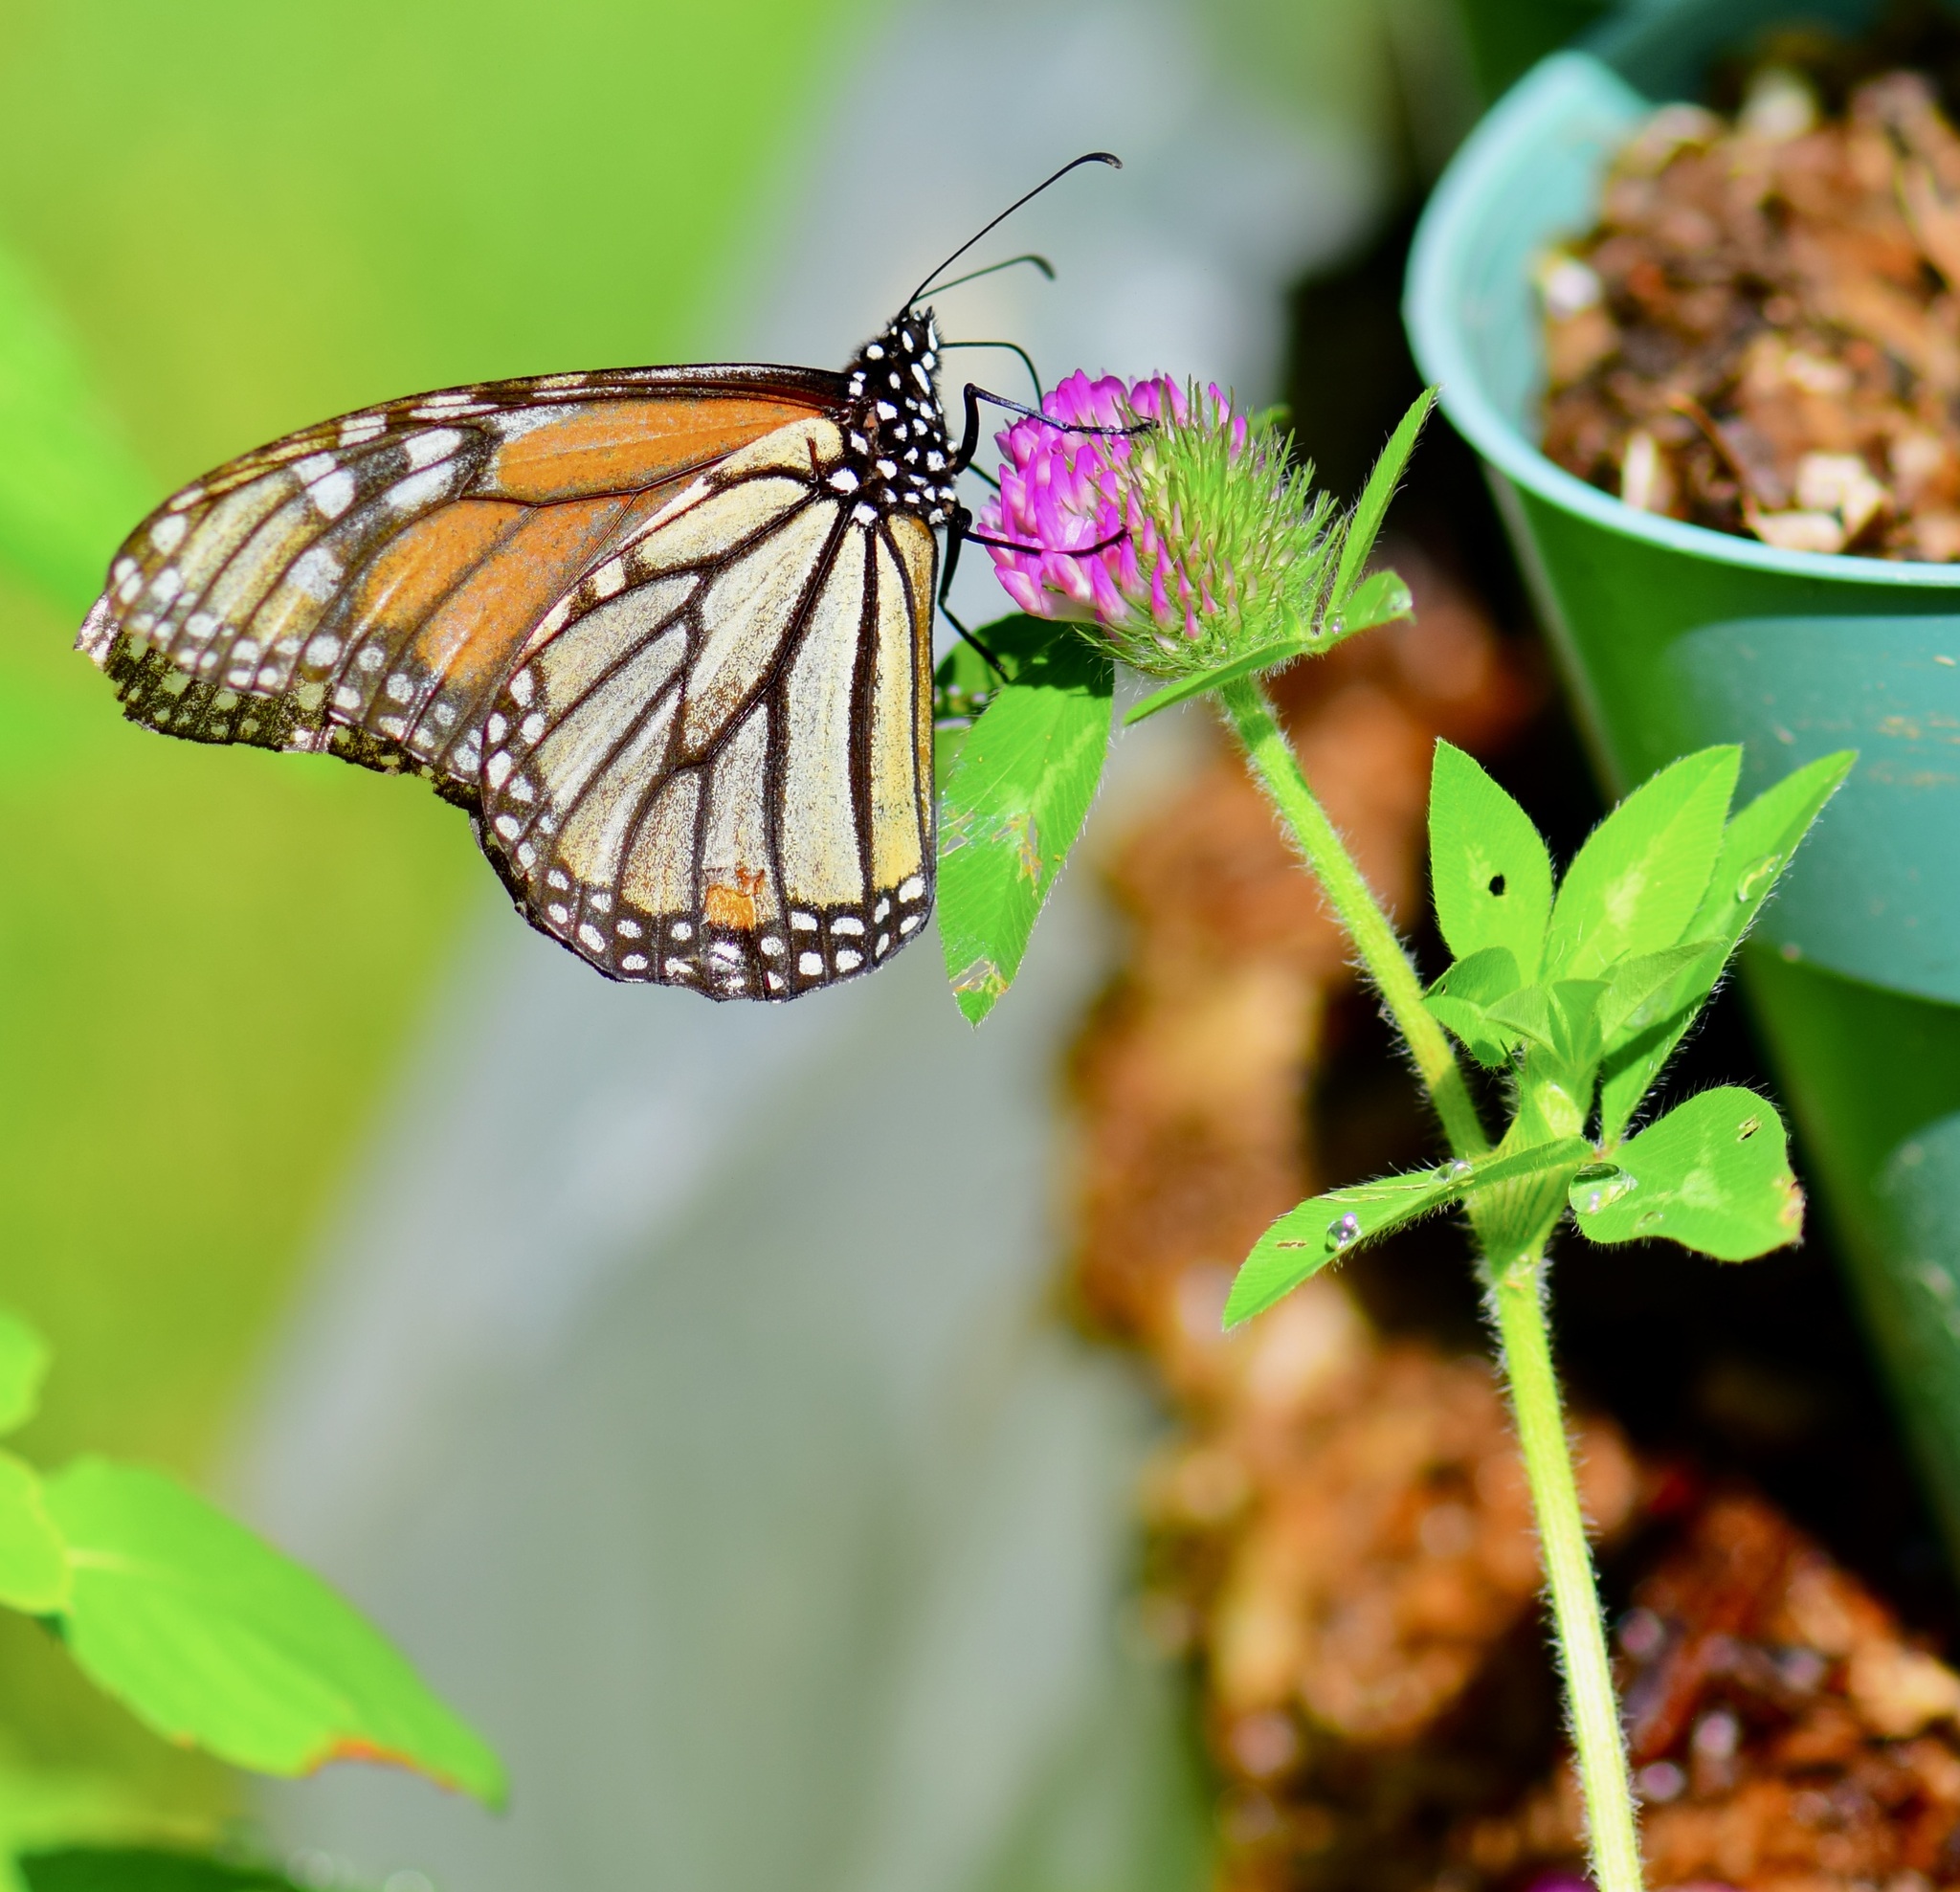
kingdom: Animalia
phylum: Arthropoda
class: Insecta
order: Lepidoptera
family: Nymphalidae
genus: Danaus
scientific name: Danaus plexippus
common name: Monarch
